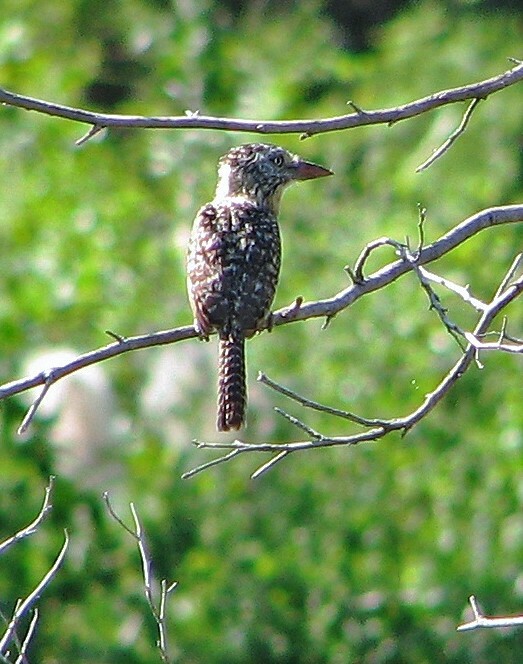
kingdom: Animalia
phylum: Chordata
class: Aves
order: Piciformes
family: Bucconidae
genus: Nystalus
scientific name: Nystalus maculatus
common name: Caatinga puffbird
